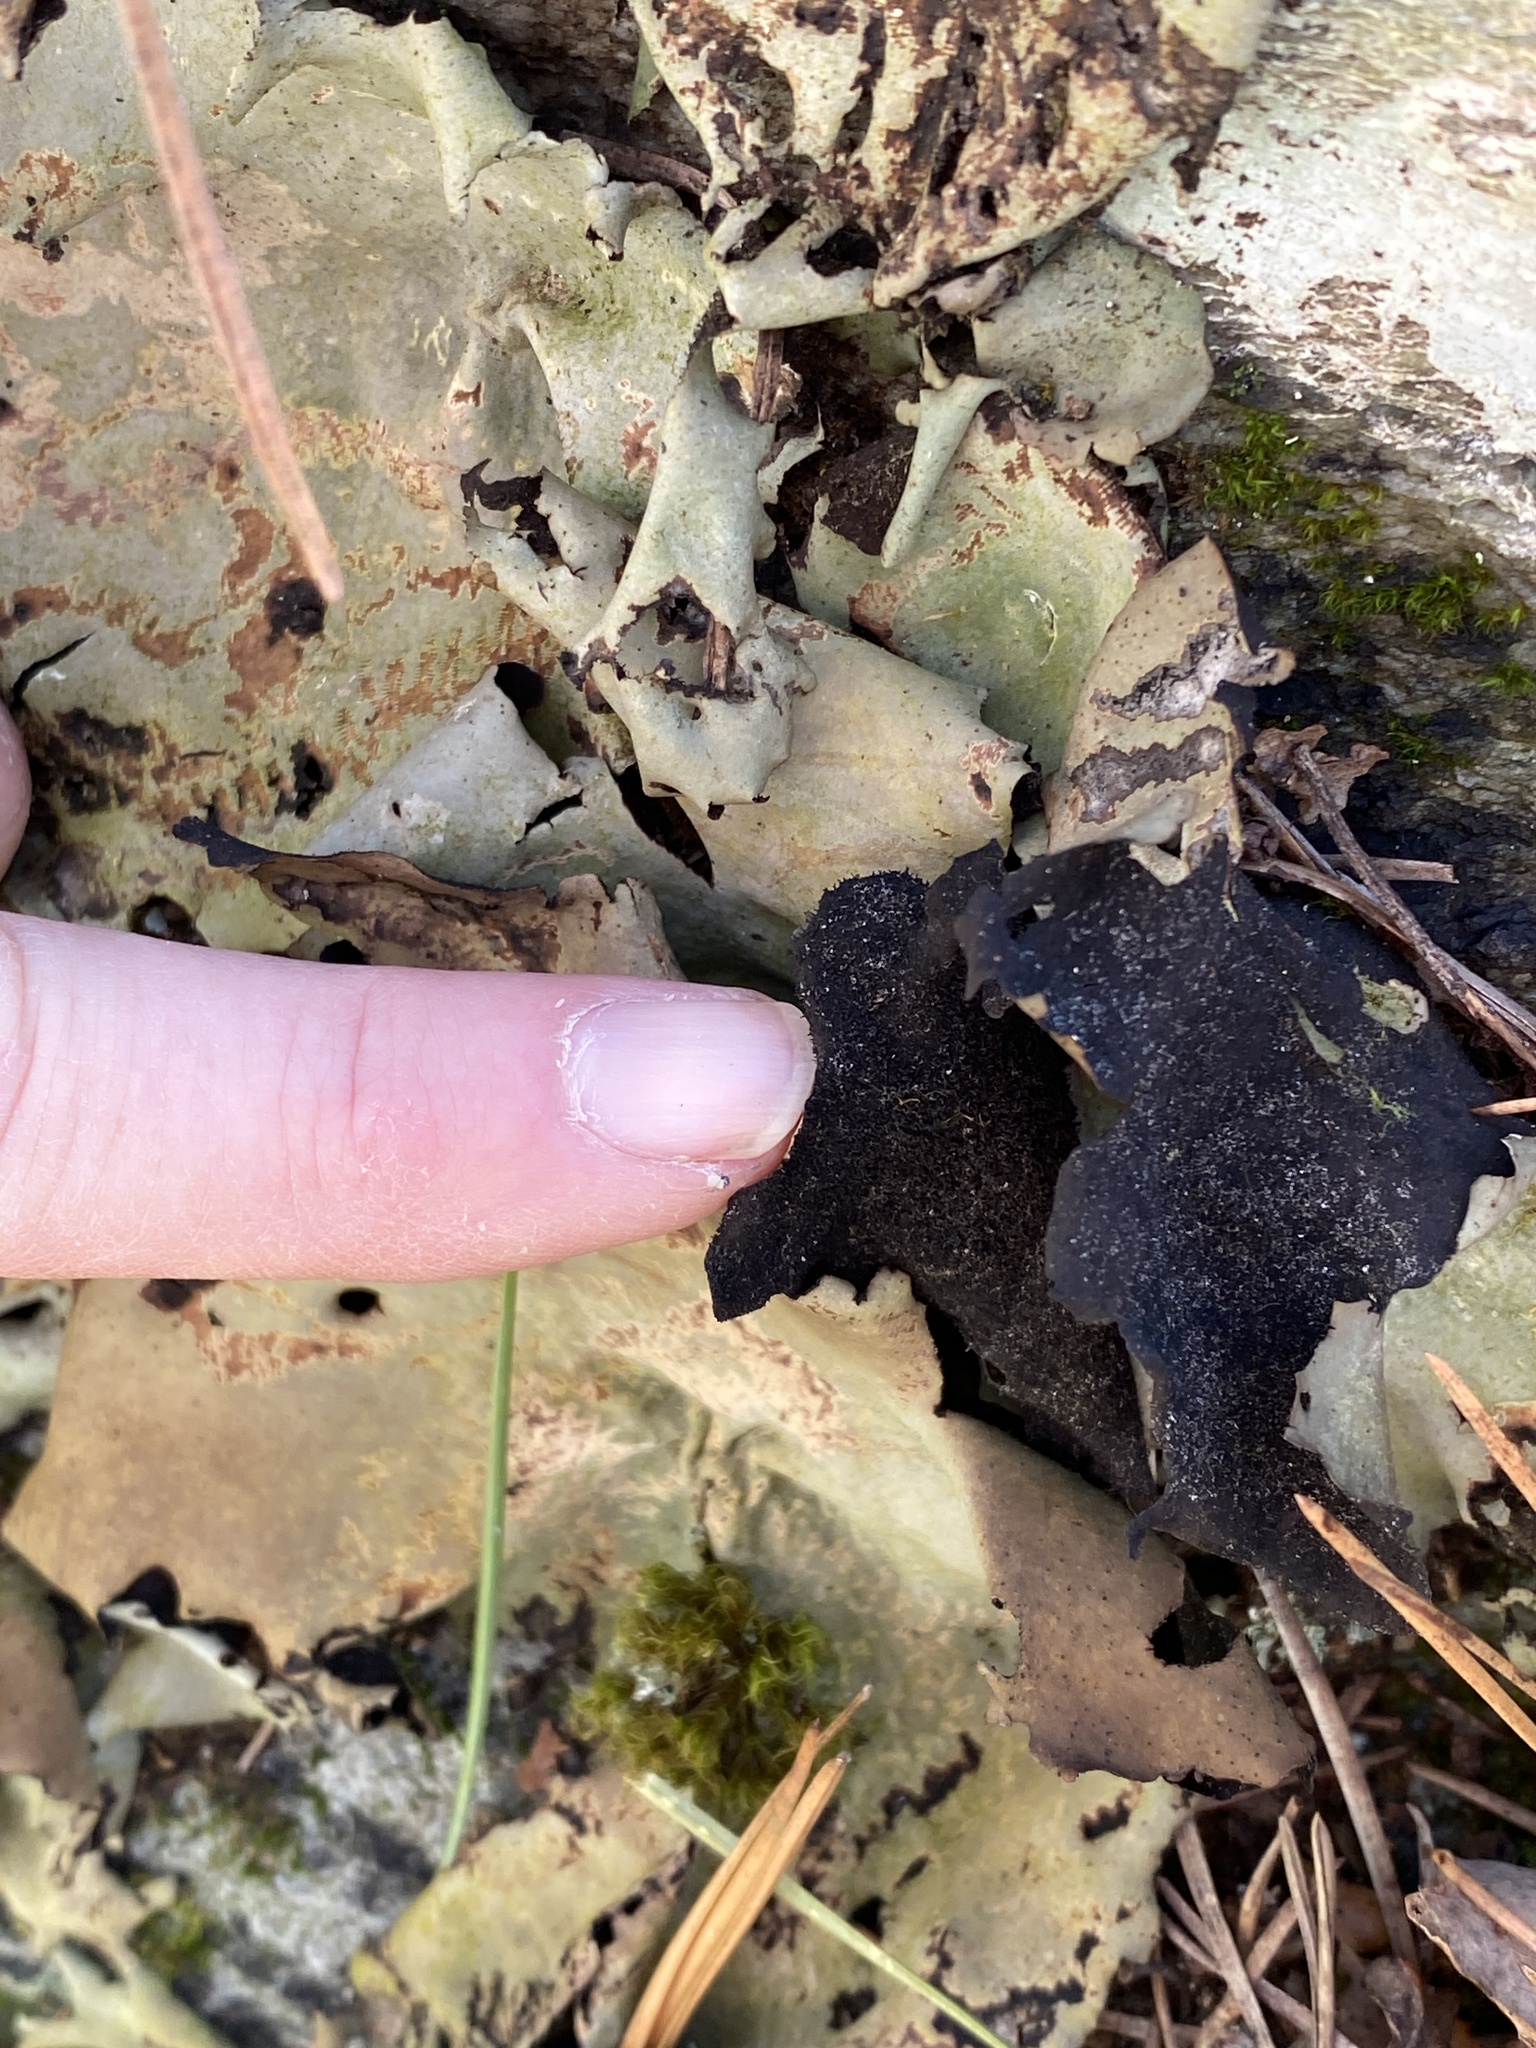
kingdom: Fungi
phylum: Ascomycota
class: Lecanoromycetes
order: Umbilicariales
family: Umbilicariaceae
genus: Umbilicaria
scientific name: Umbilicaria mammulata
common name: Smooth rock tripe
